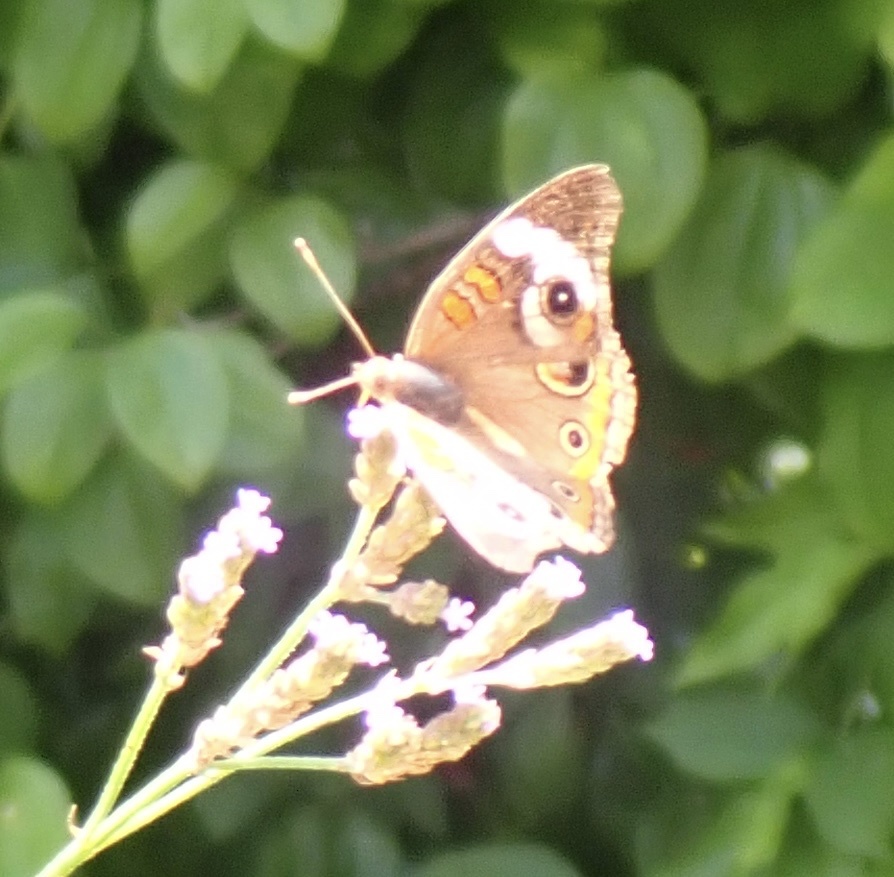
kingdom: Animalia
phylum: Arthropoda
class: Insecta
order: Lepidoptera
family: Nymphalidae
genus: Junonia
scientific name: Junonia coenia
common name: Common buckeye
